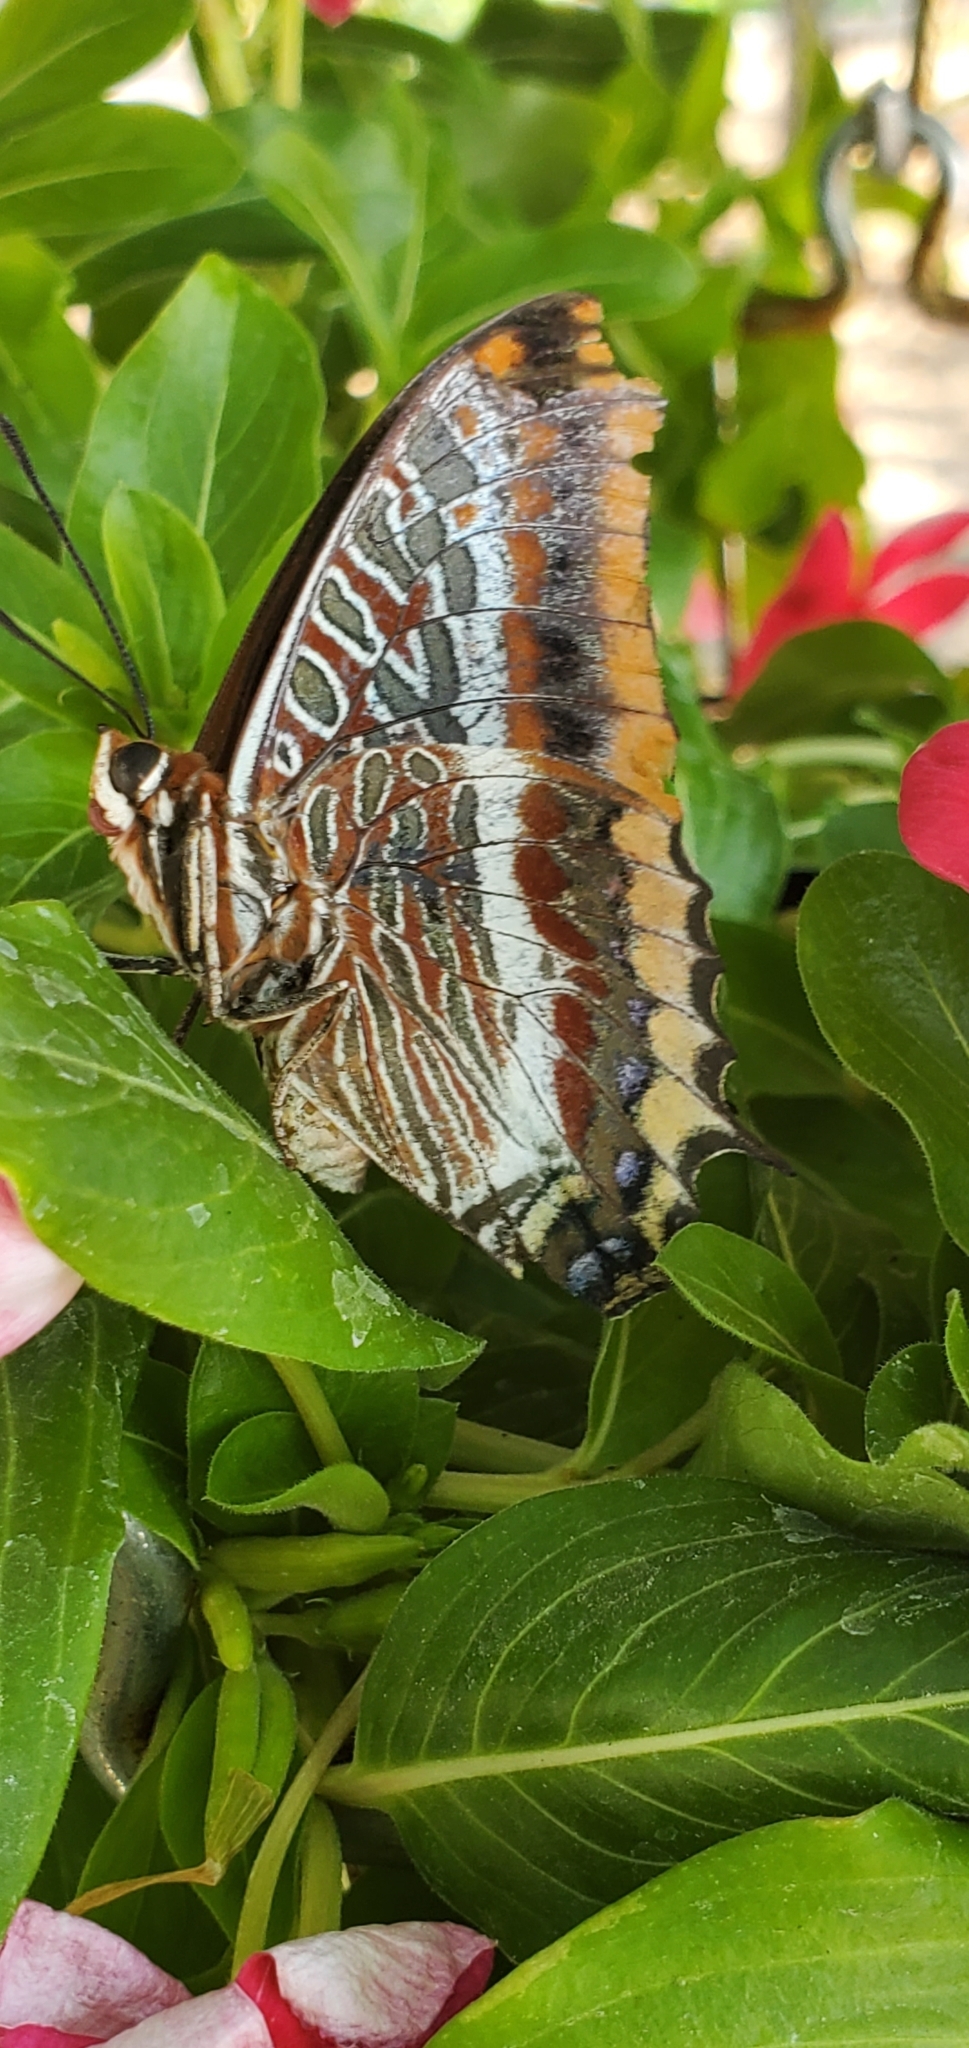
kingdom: Animalia
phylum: Arthropoda
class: Insecta
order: Lepidoptera
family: Nymphalidae
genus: Charaxes
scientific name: Charaxes jasius
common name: Two tailed pasha
